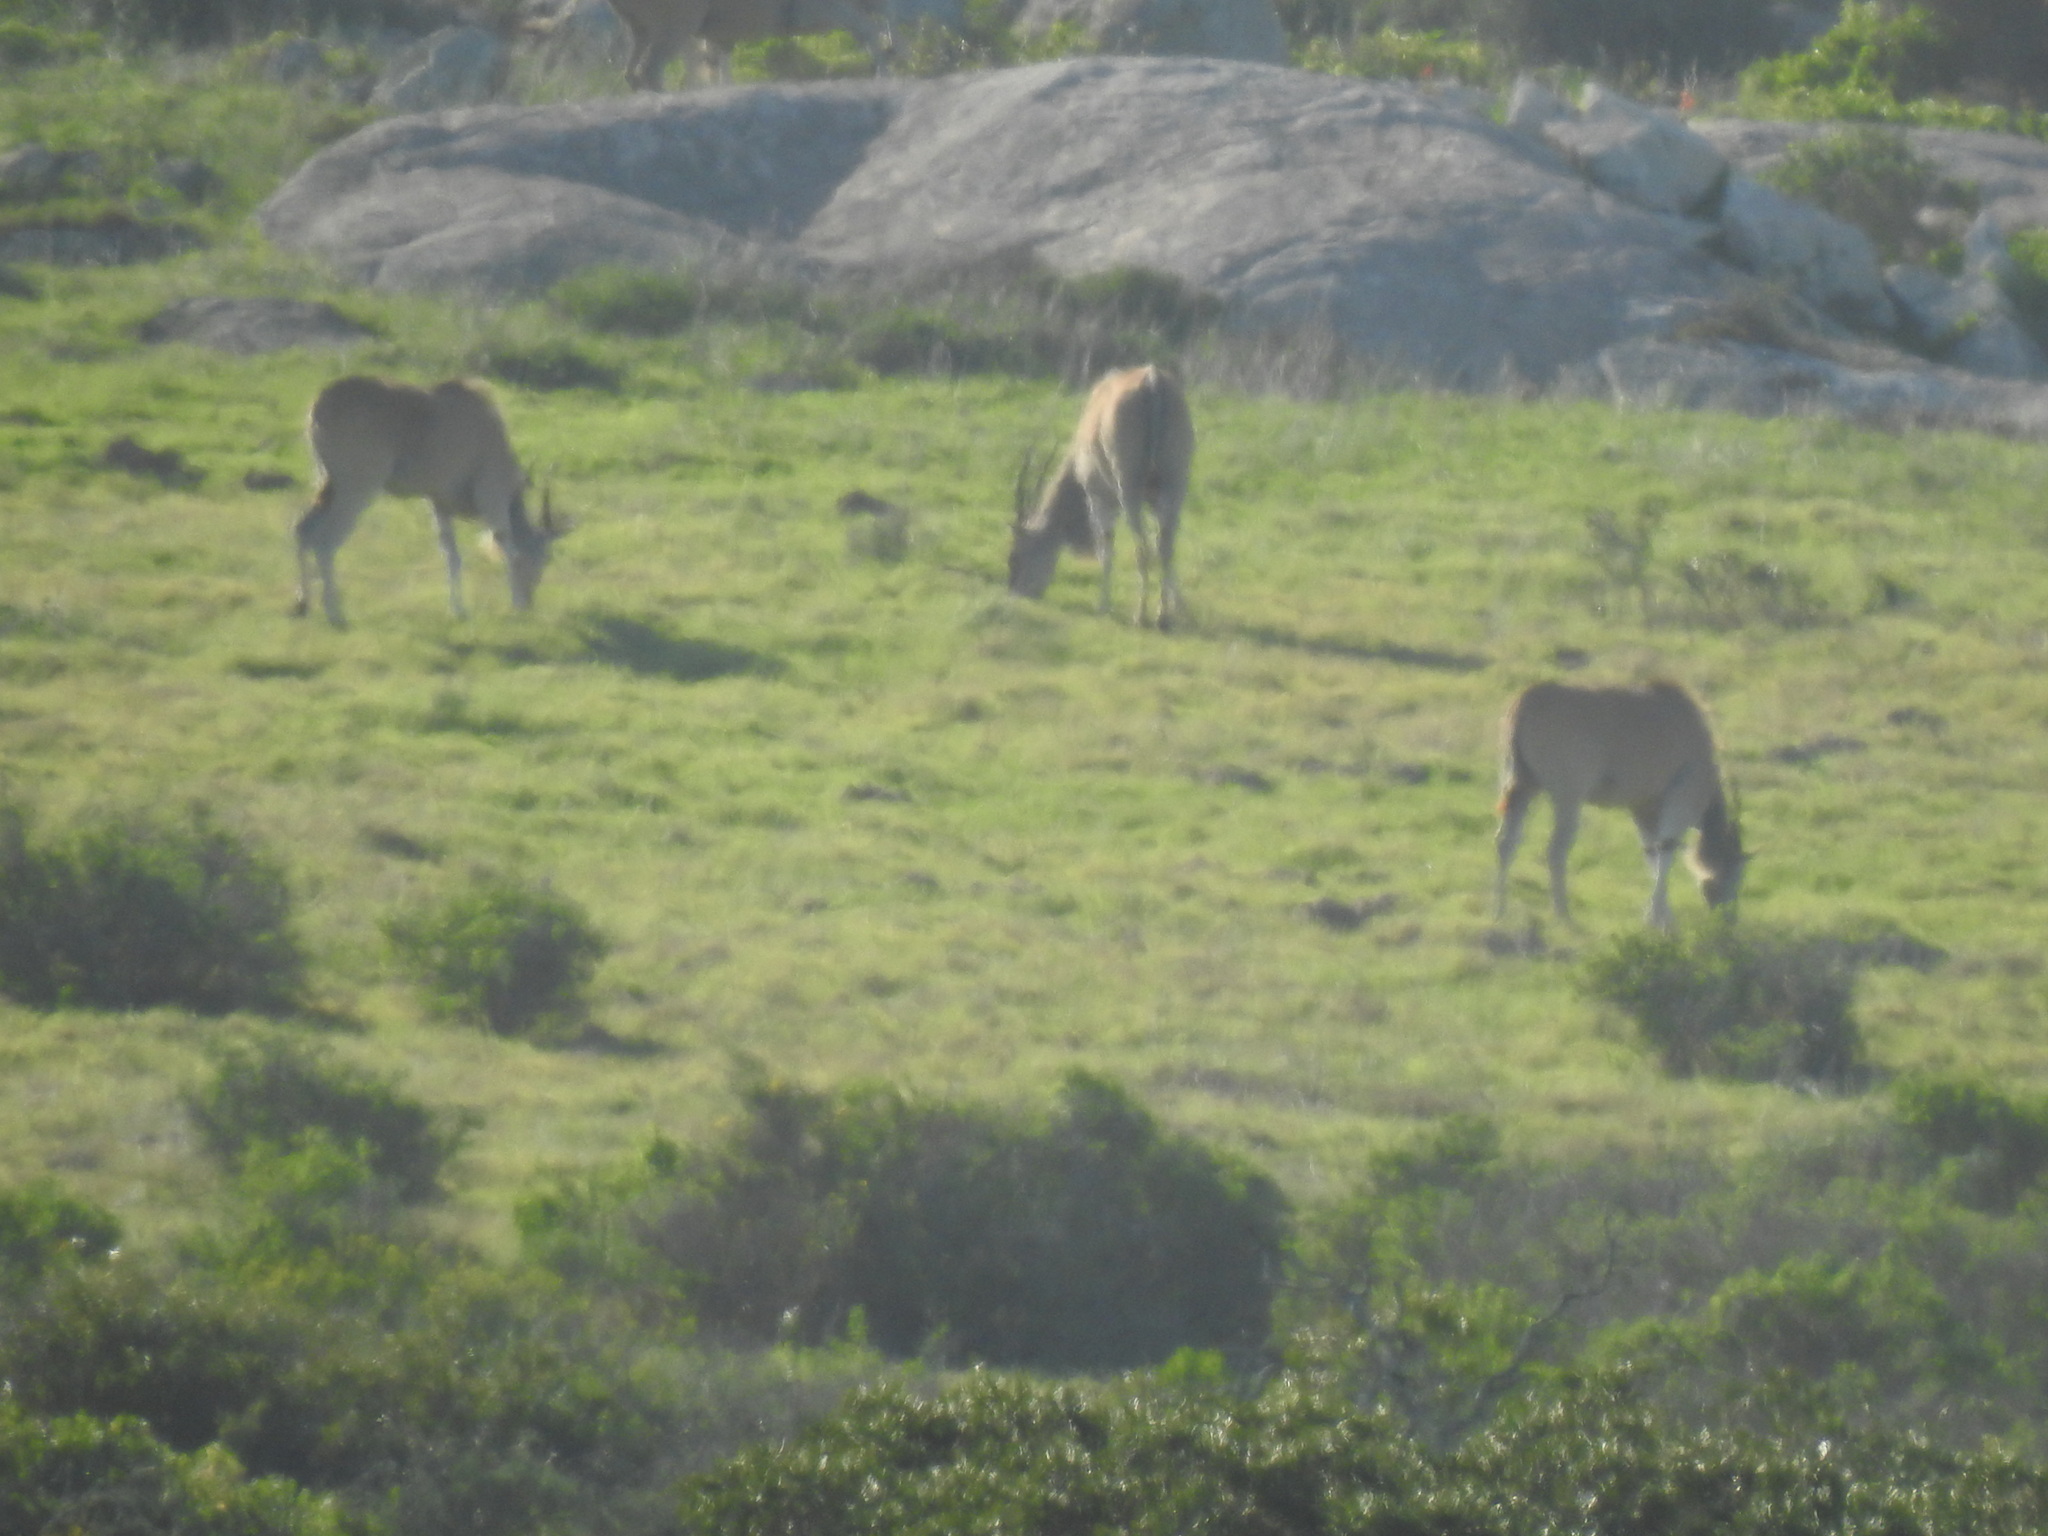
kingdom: Animalia
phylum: Chordata
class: Mammalia
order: Artiodactyla
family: Bovidae
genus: Taurotragus
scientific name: Taurotragus oryx
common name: Common eland
